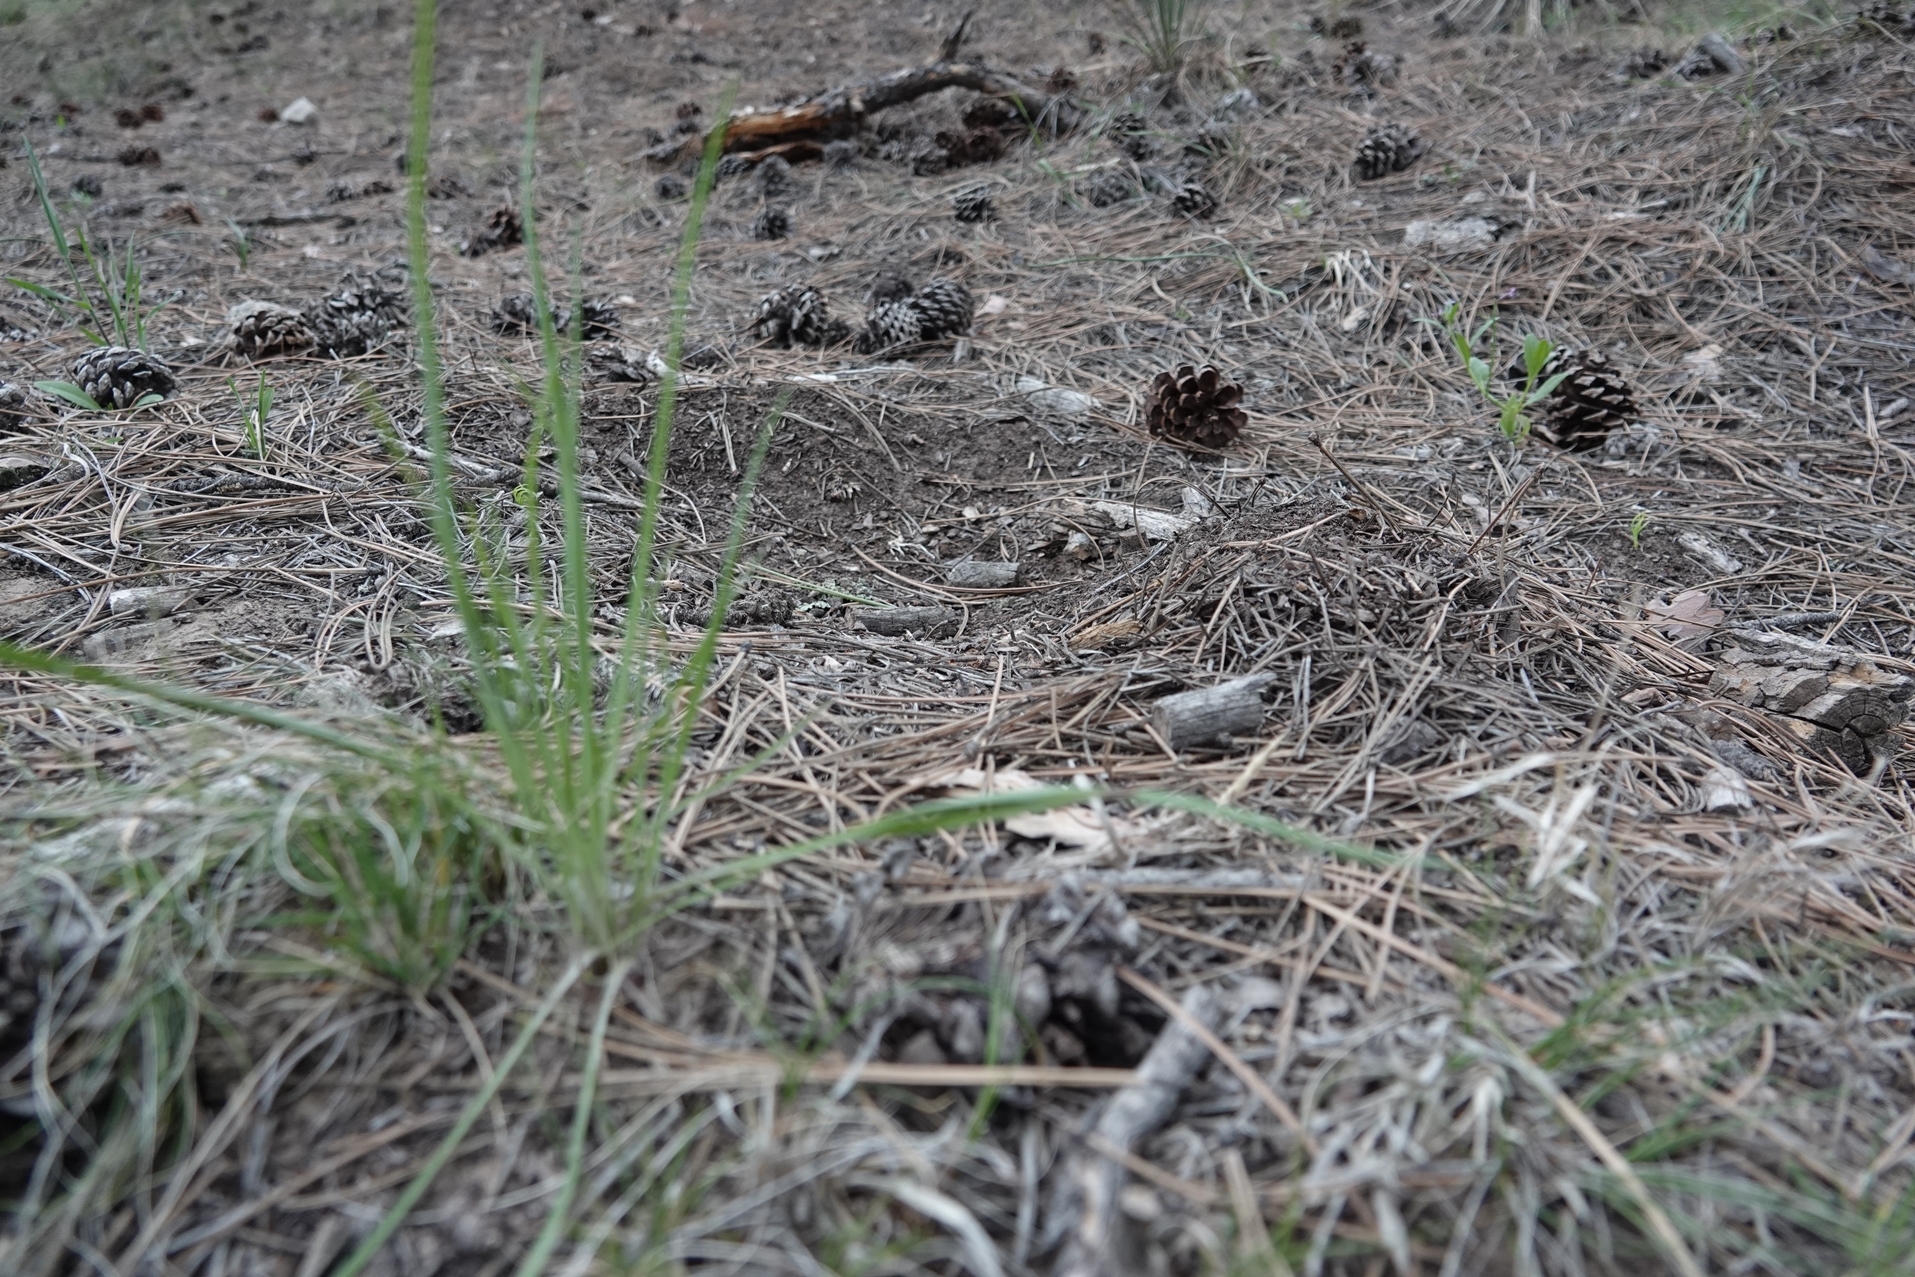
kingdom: Animalia
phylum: Chordata
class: Mammalia
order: Carnivora
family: Felidae
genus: Puma
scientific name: Puma concolor
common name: Puma
